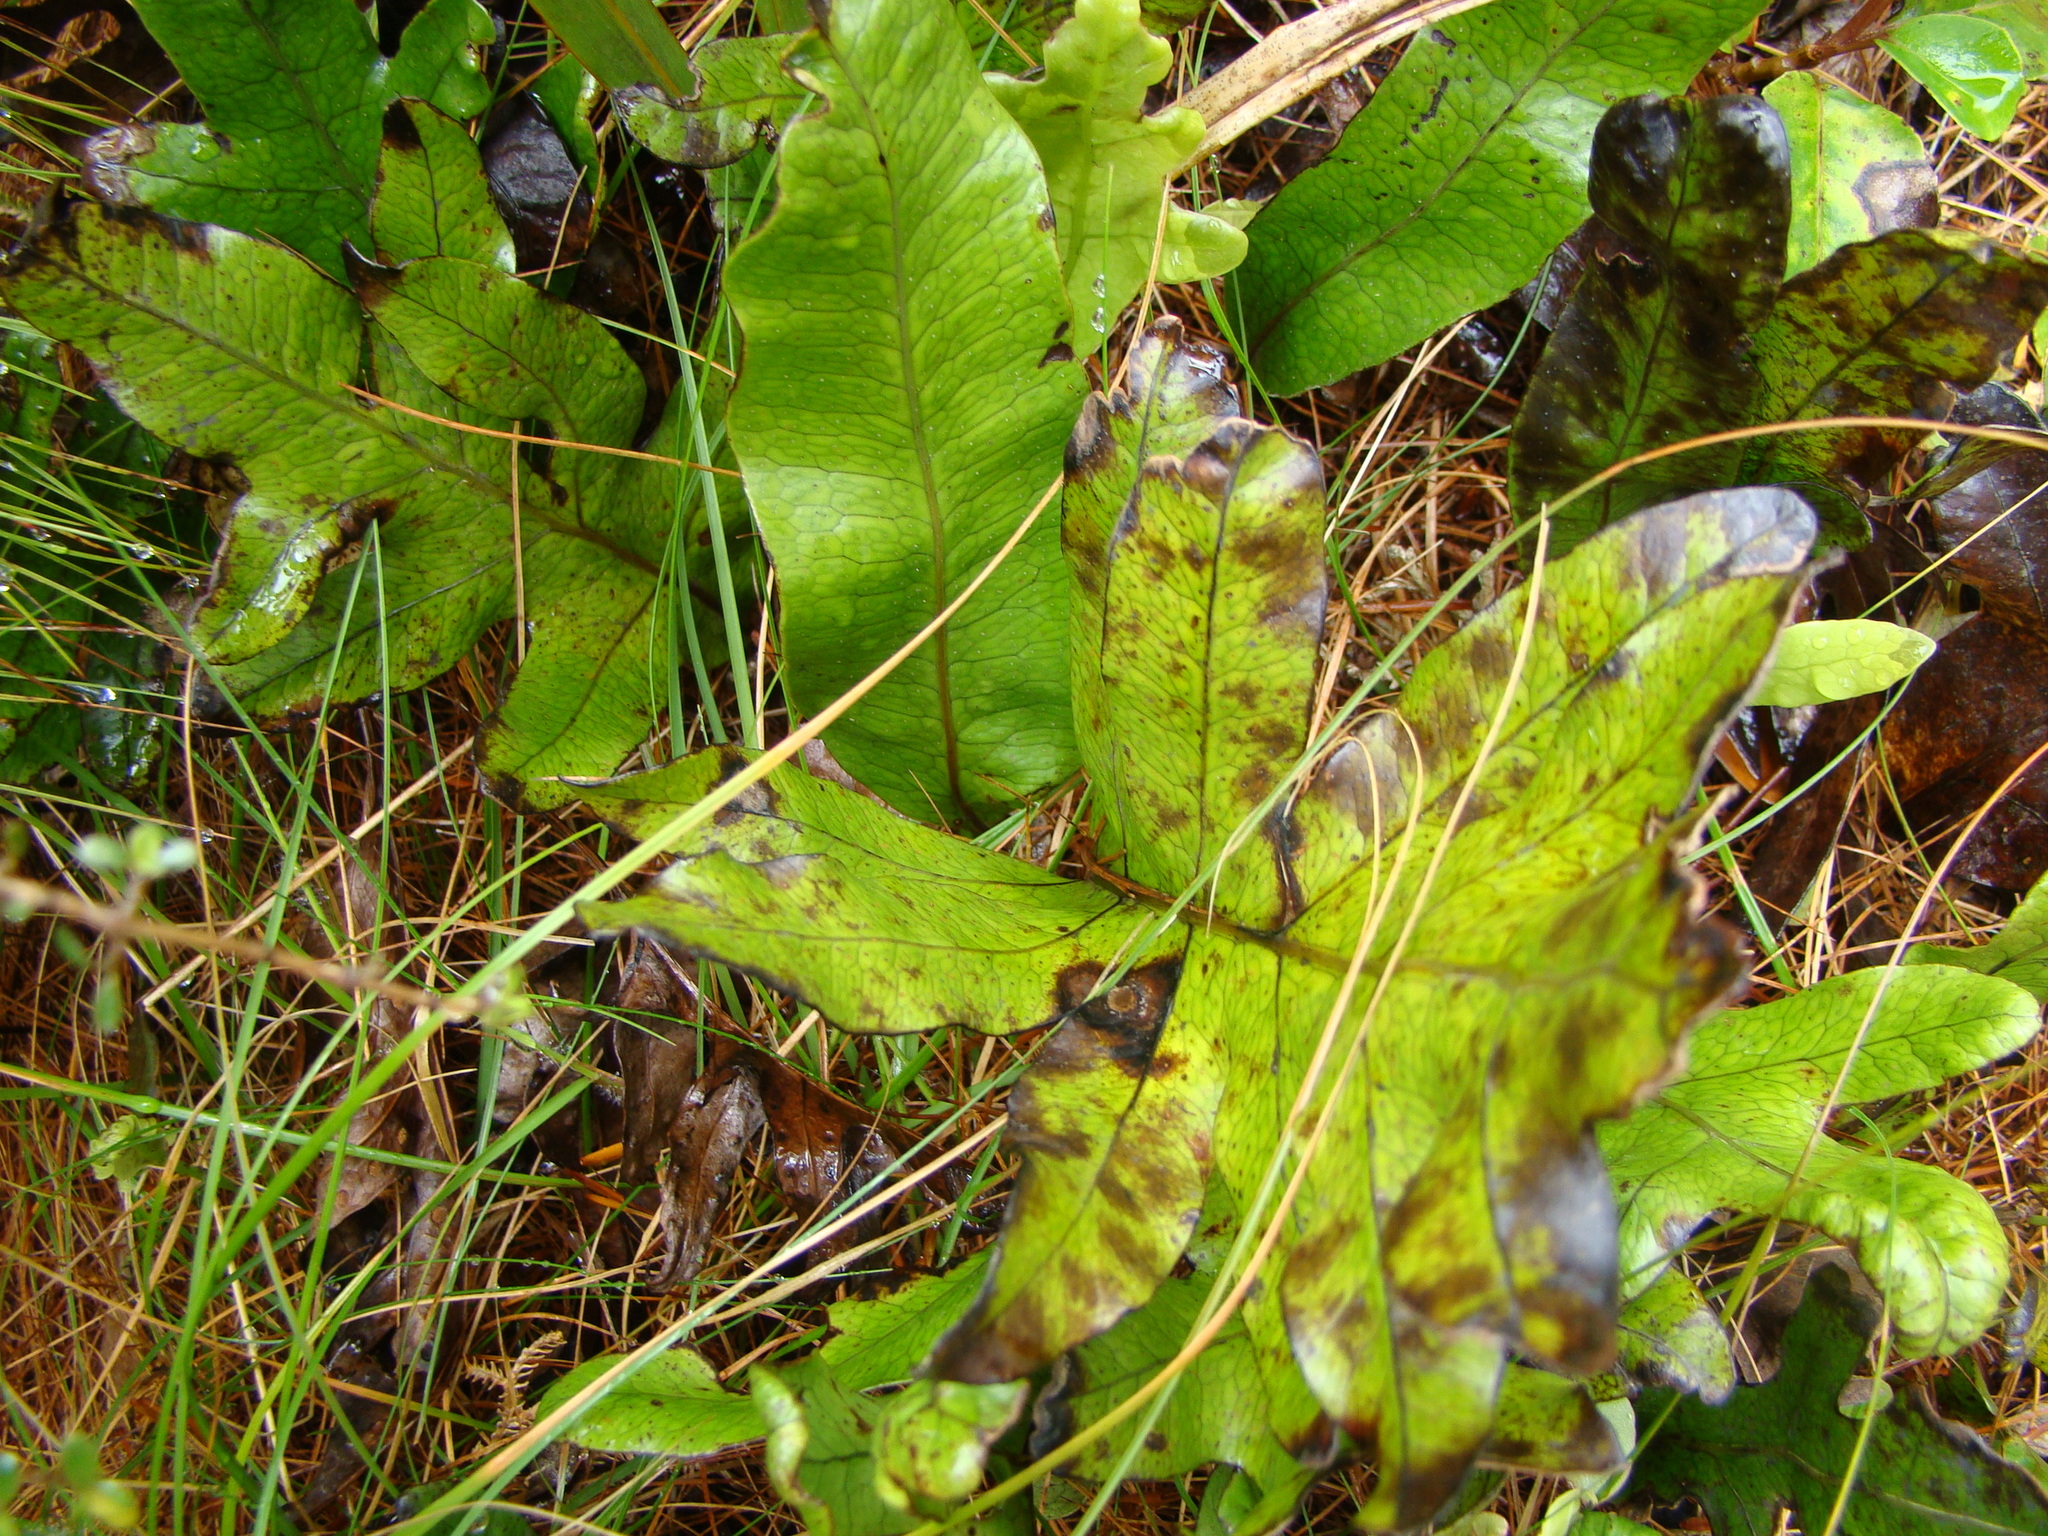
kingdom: Plantae
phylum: Tracheophyta
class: Polypodiopsida
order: Polypodiales
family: Polypodiaceae
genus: Lecanopteris
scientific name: Lecanopteris pustulata
